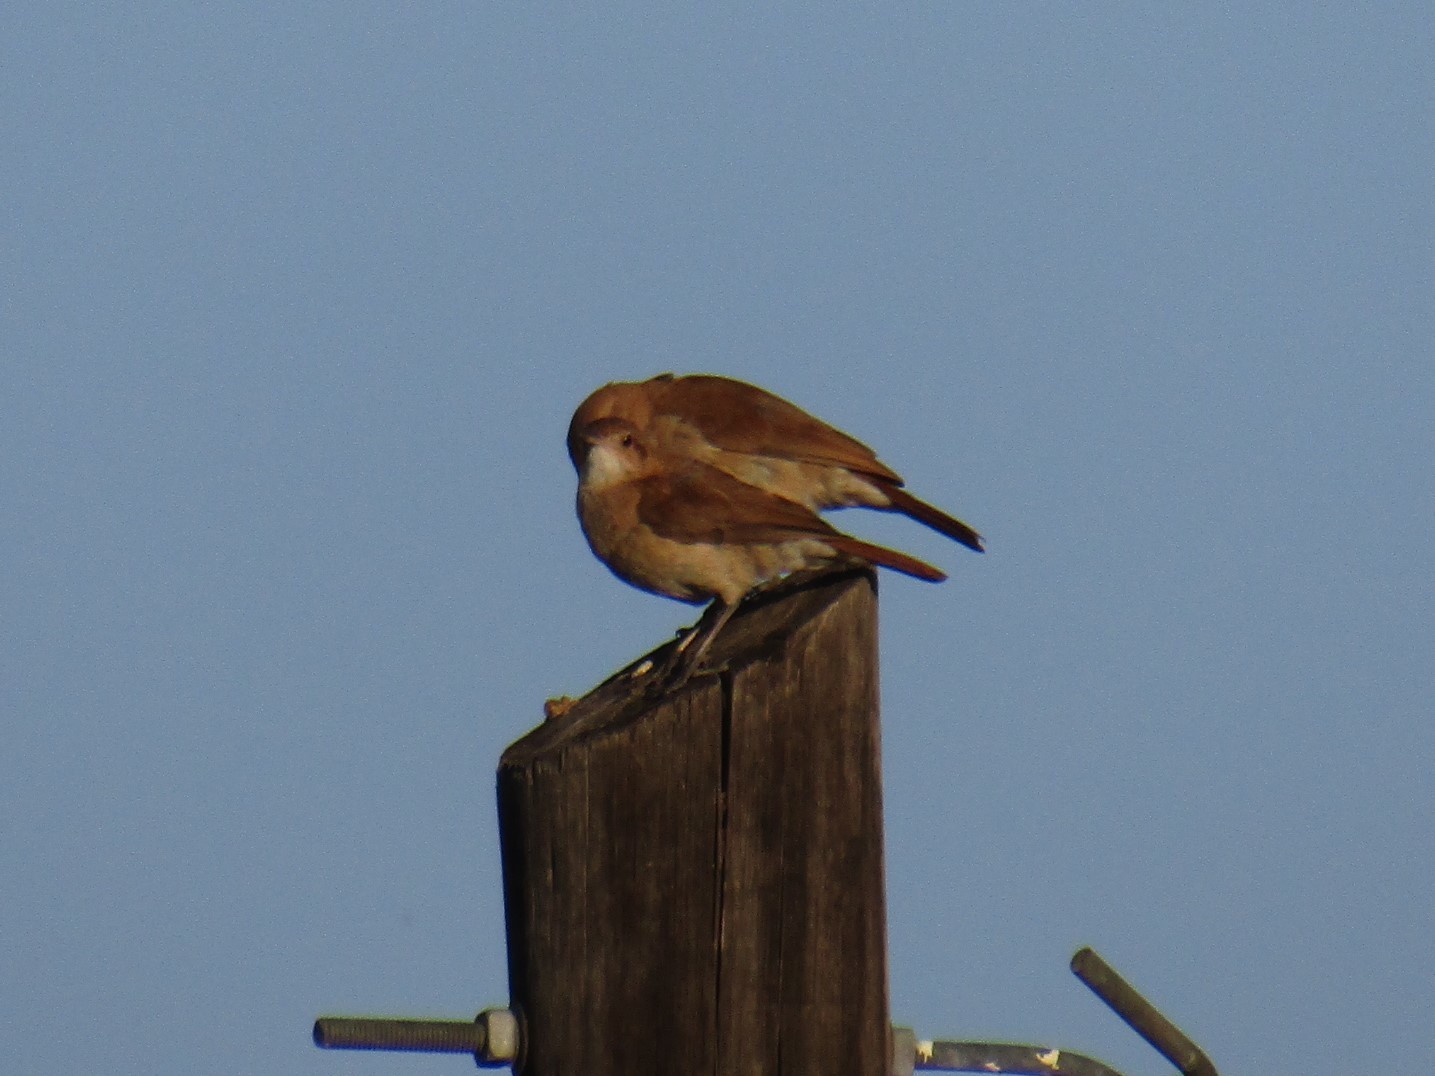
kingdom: Animalia
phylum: Chordata
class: Aves
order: Passeriformes
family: Furnariidae
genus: Furnarius
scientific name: Furnarius rufus
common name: Rufous hornero
